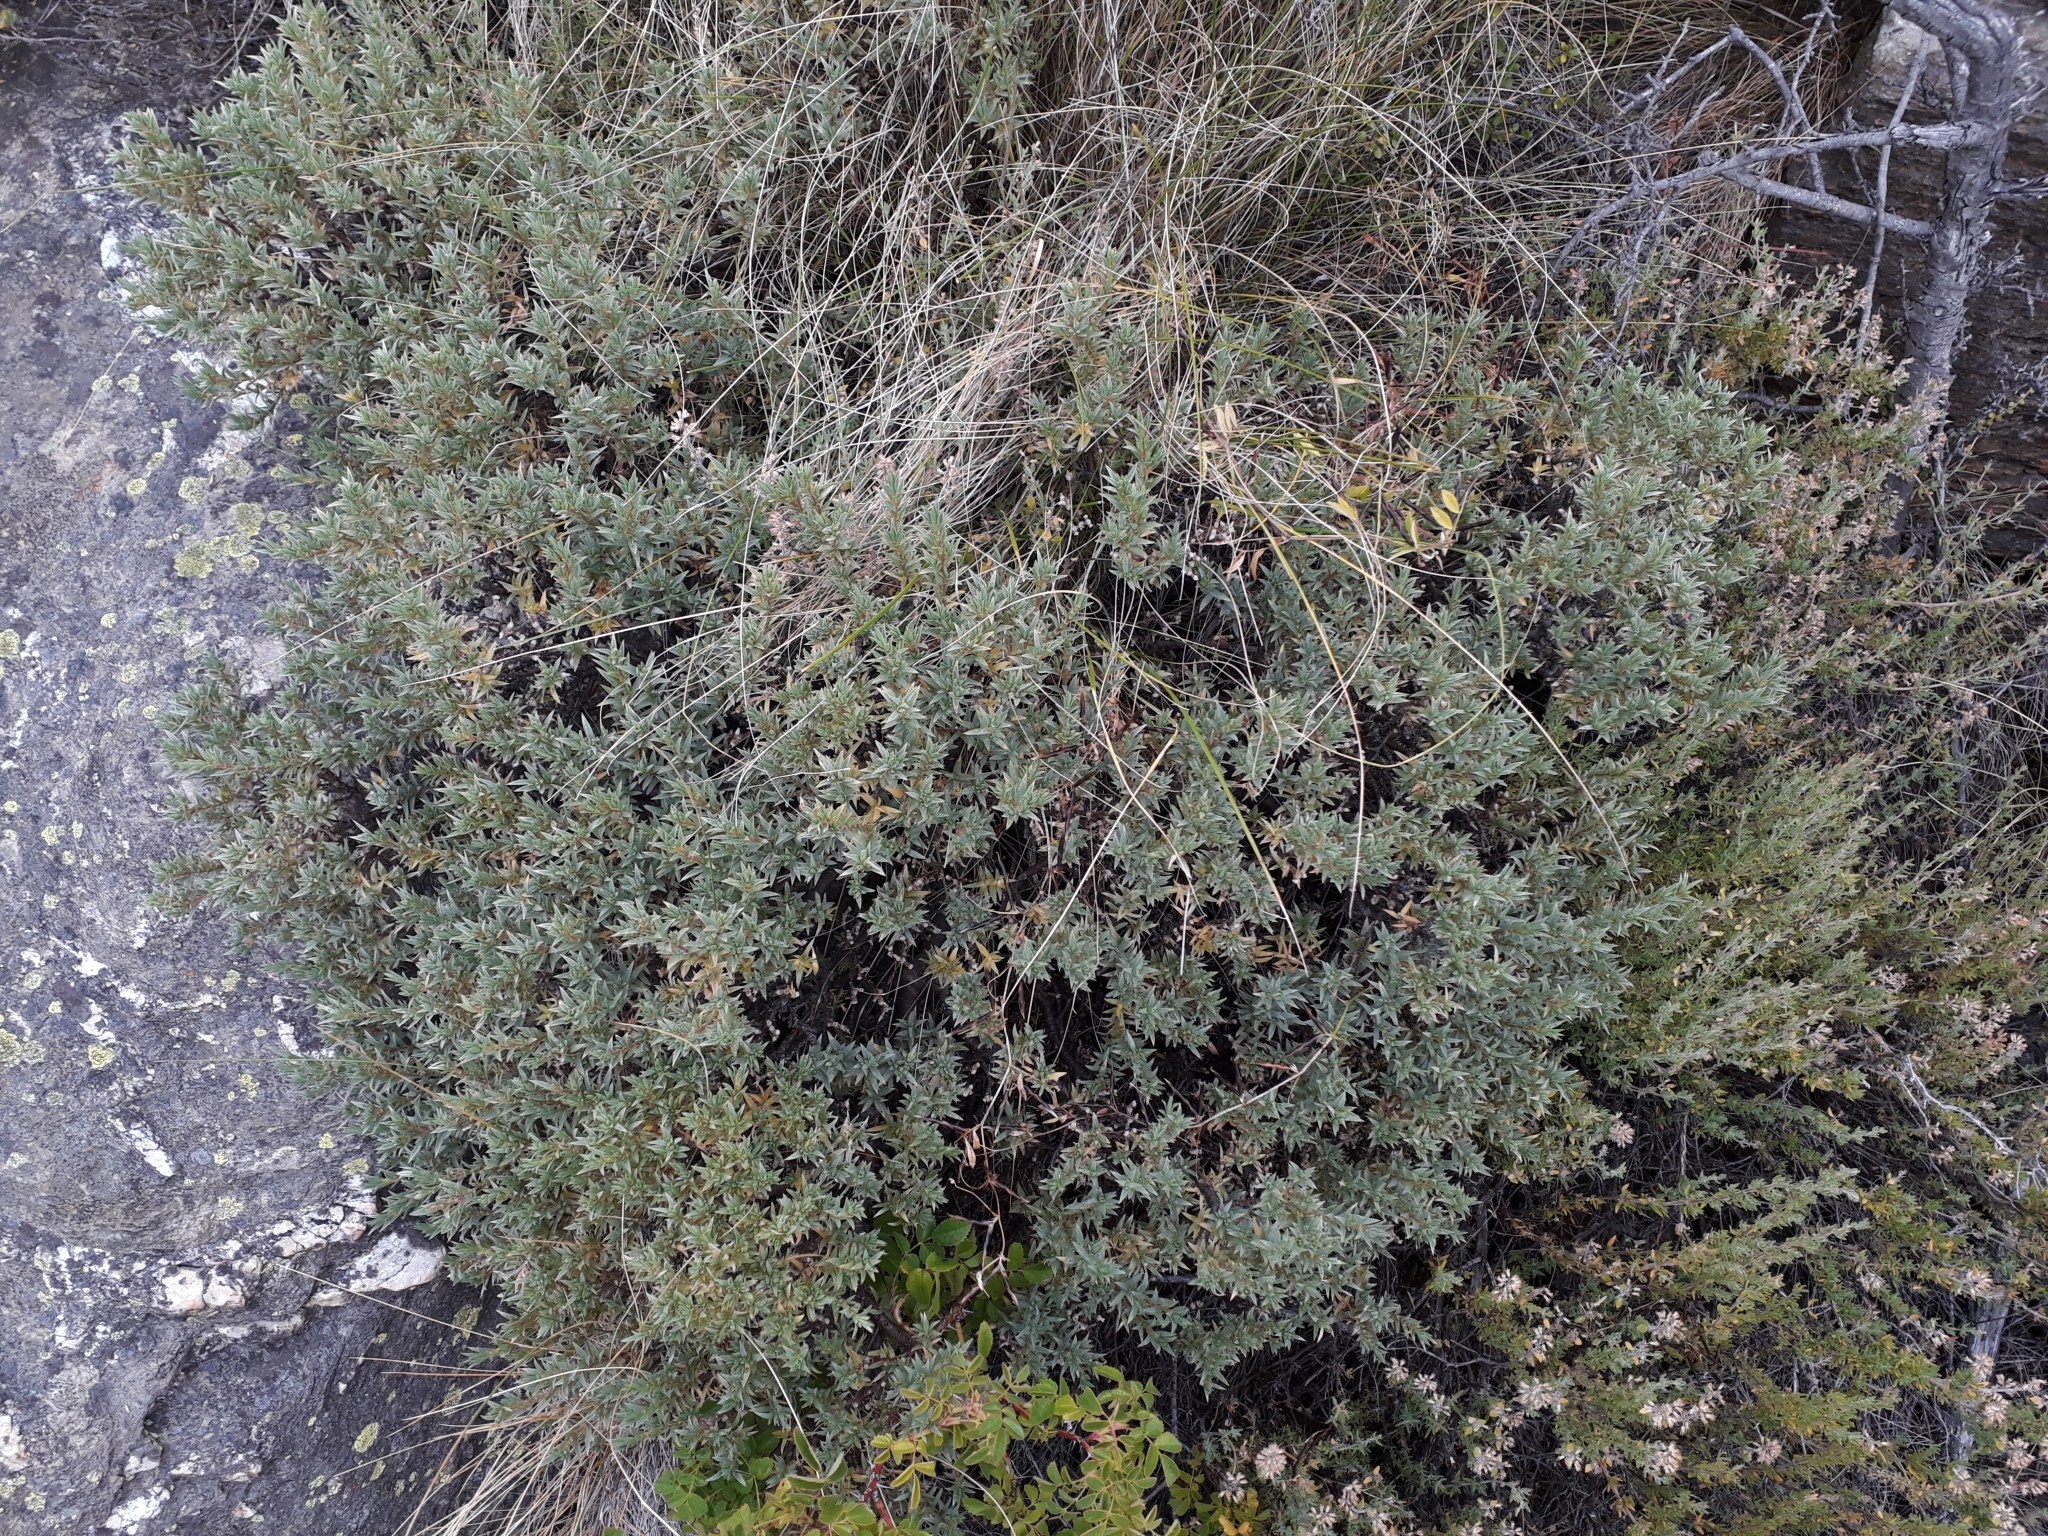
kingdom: Plantae
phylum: Tracheophyta
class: Magnoliopsida
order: Malvales
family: Thymelaeaceae
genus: Pimelea
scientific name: Pimelea aridula
